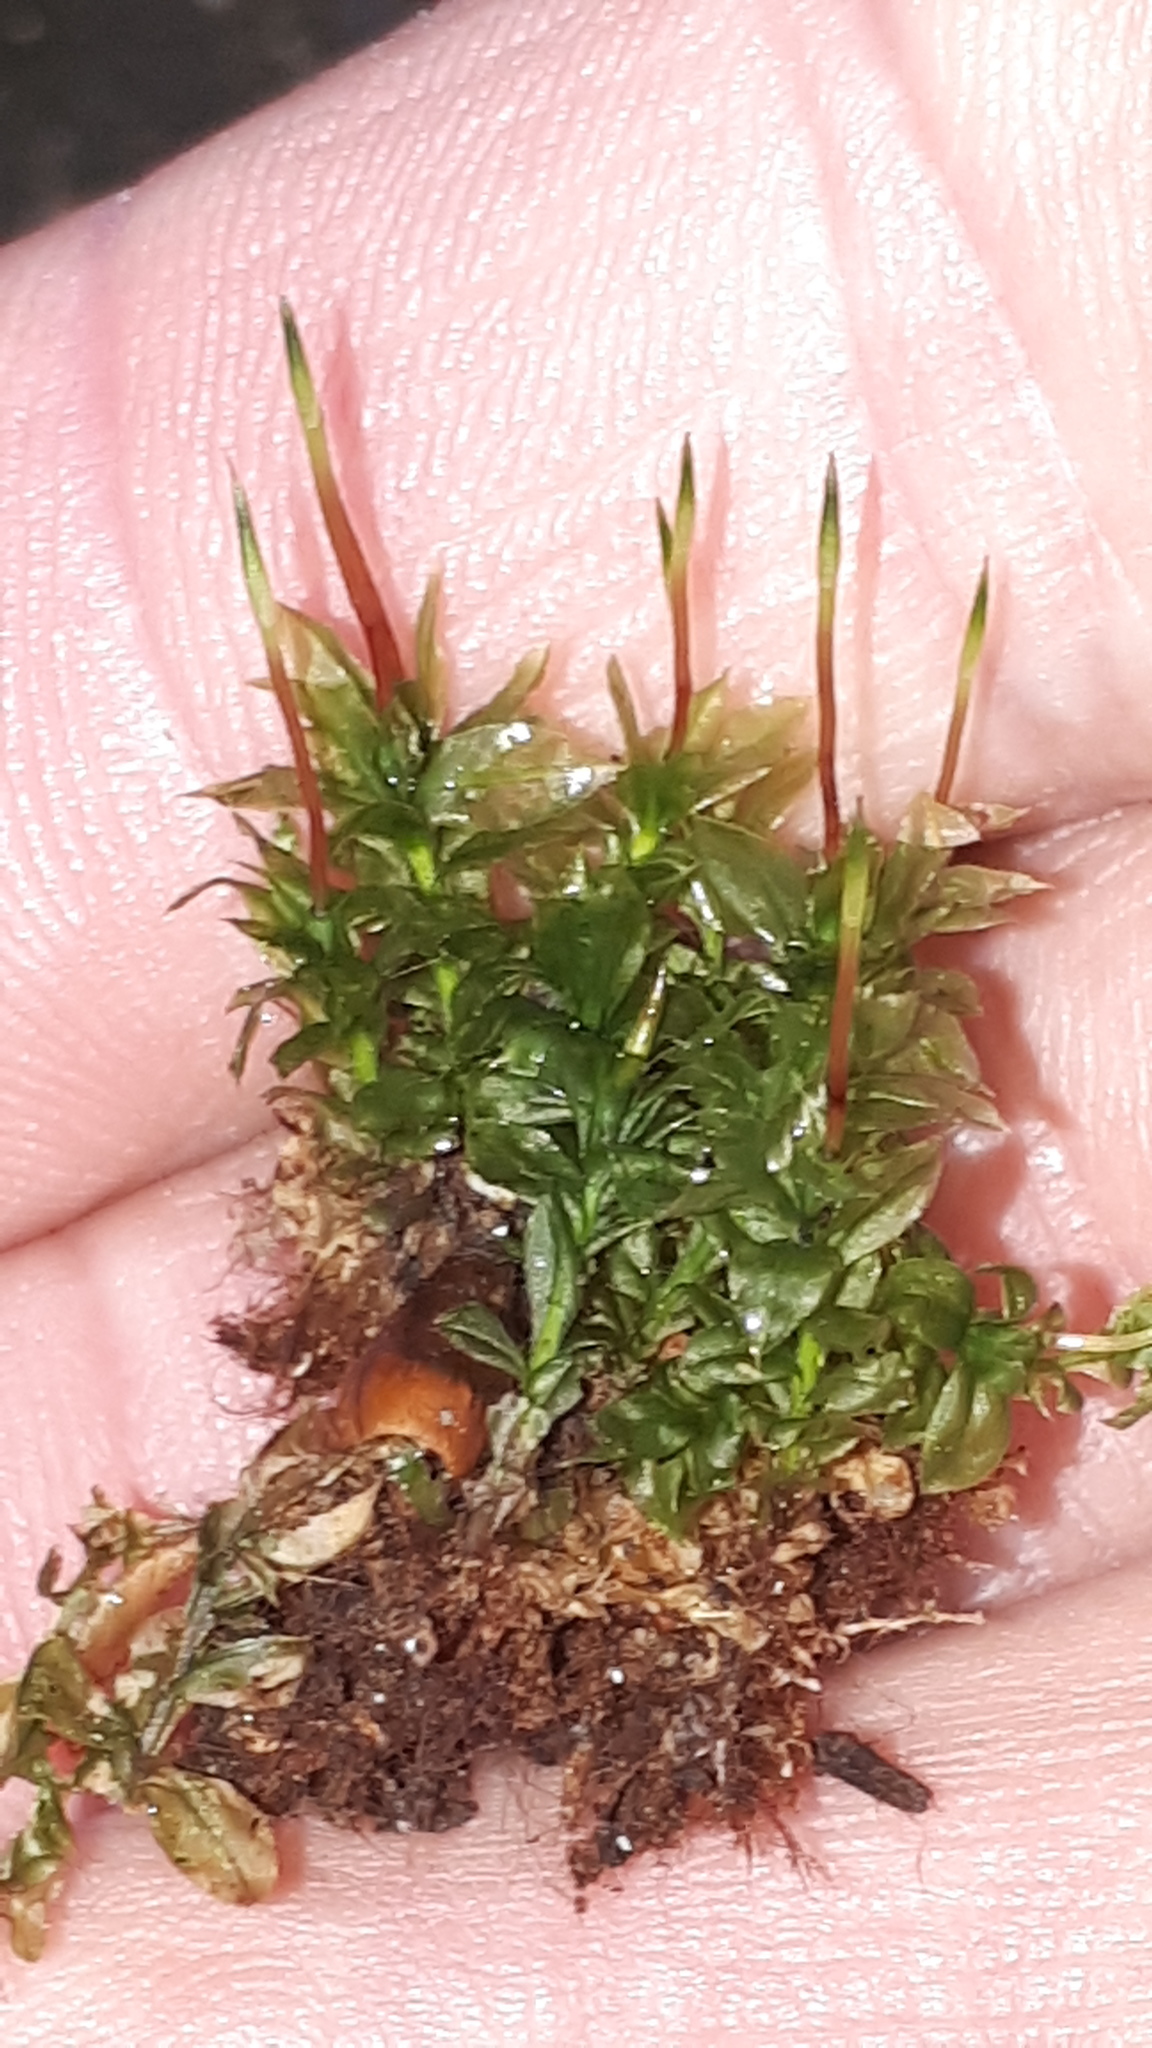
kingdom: Plantae
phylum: Bryophyta
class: Bryopsida
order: Bryales
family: Mniaceae
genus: Plagiomnium
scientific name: Plagiomnium cuspidatum
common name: Woodsy leafy moss
